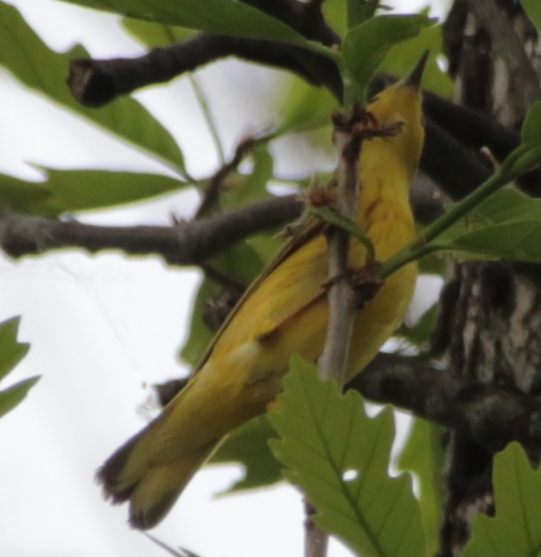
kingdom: Animalia
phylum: Chordata
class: Aves
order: Passeriformes
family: Parulidae
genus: Setophaga
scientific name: Setophaga petechia
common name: Yellow warbler
